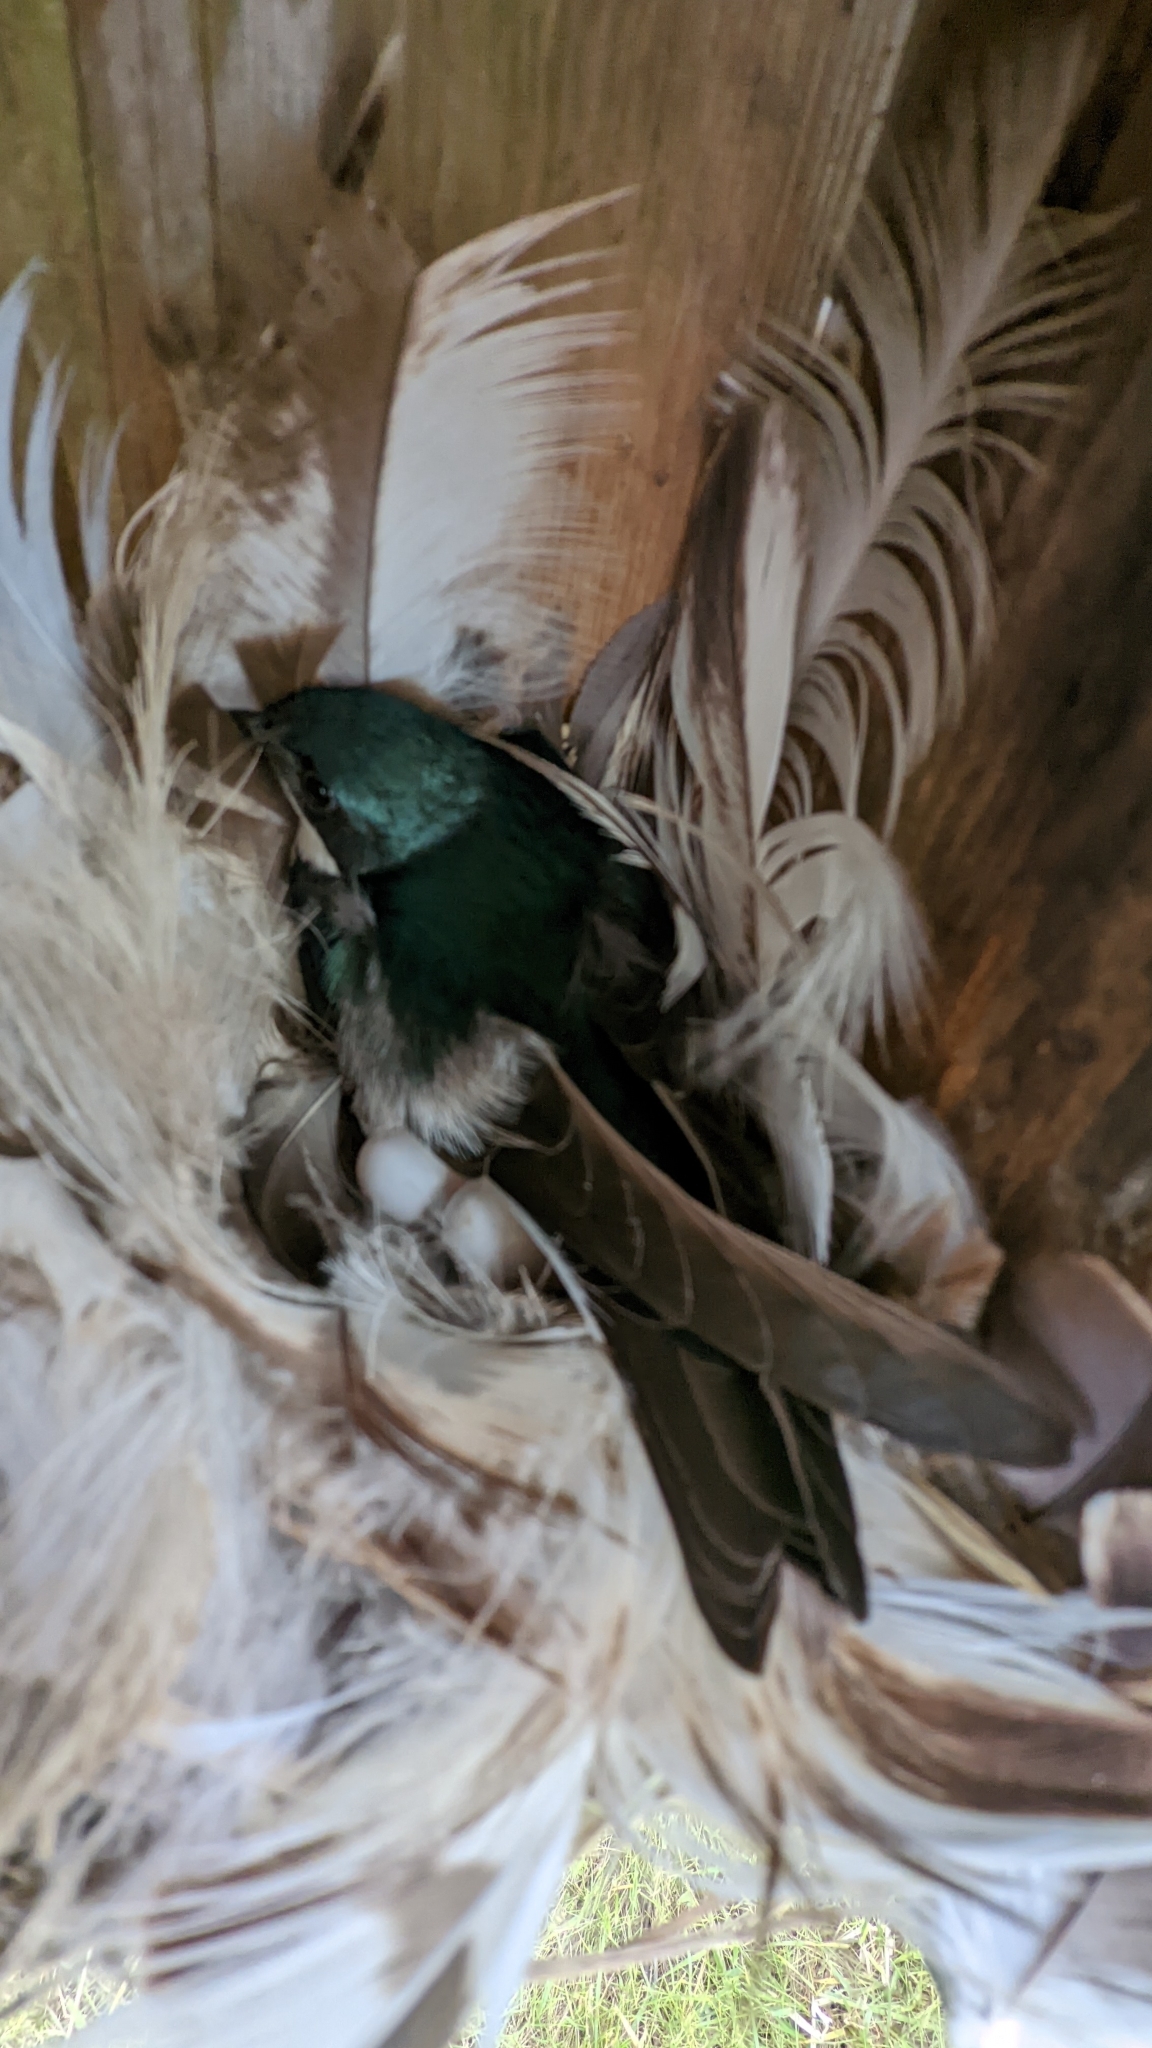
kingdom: Animalia
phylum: Chordata
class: Aves
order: Passeriformes
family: Hirundinidae
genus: Tachycineta
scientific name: Tachycineta bicolor
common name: Tree swallow
